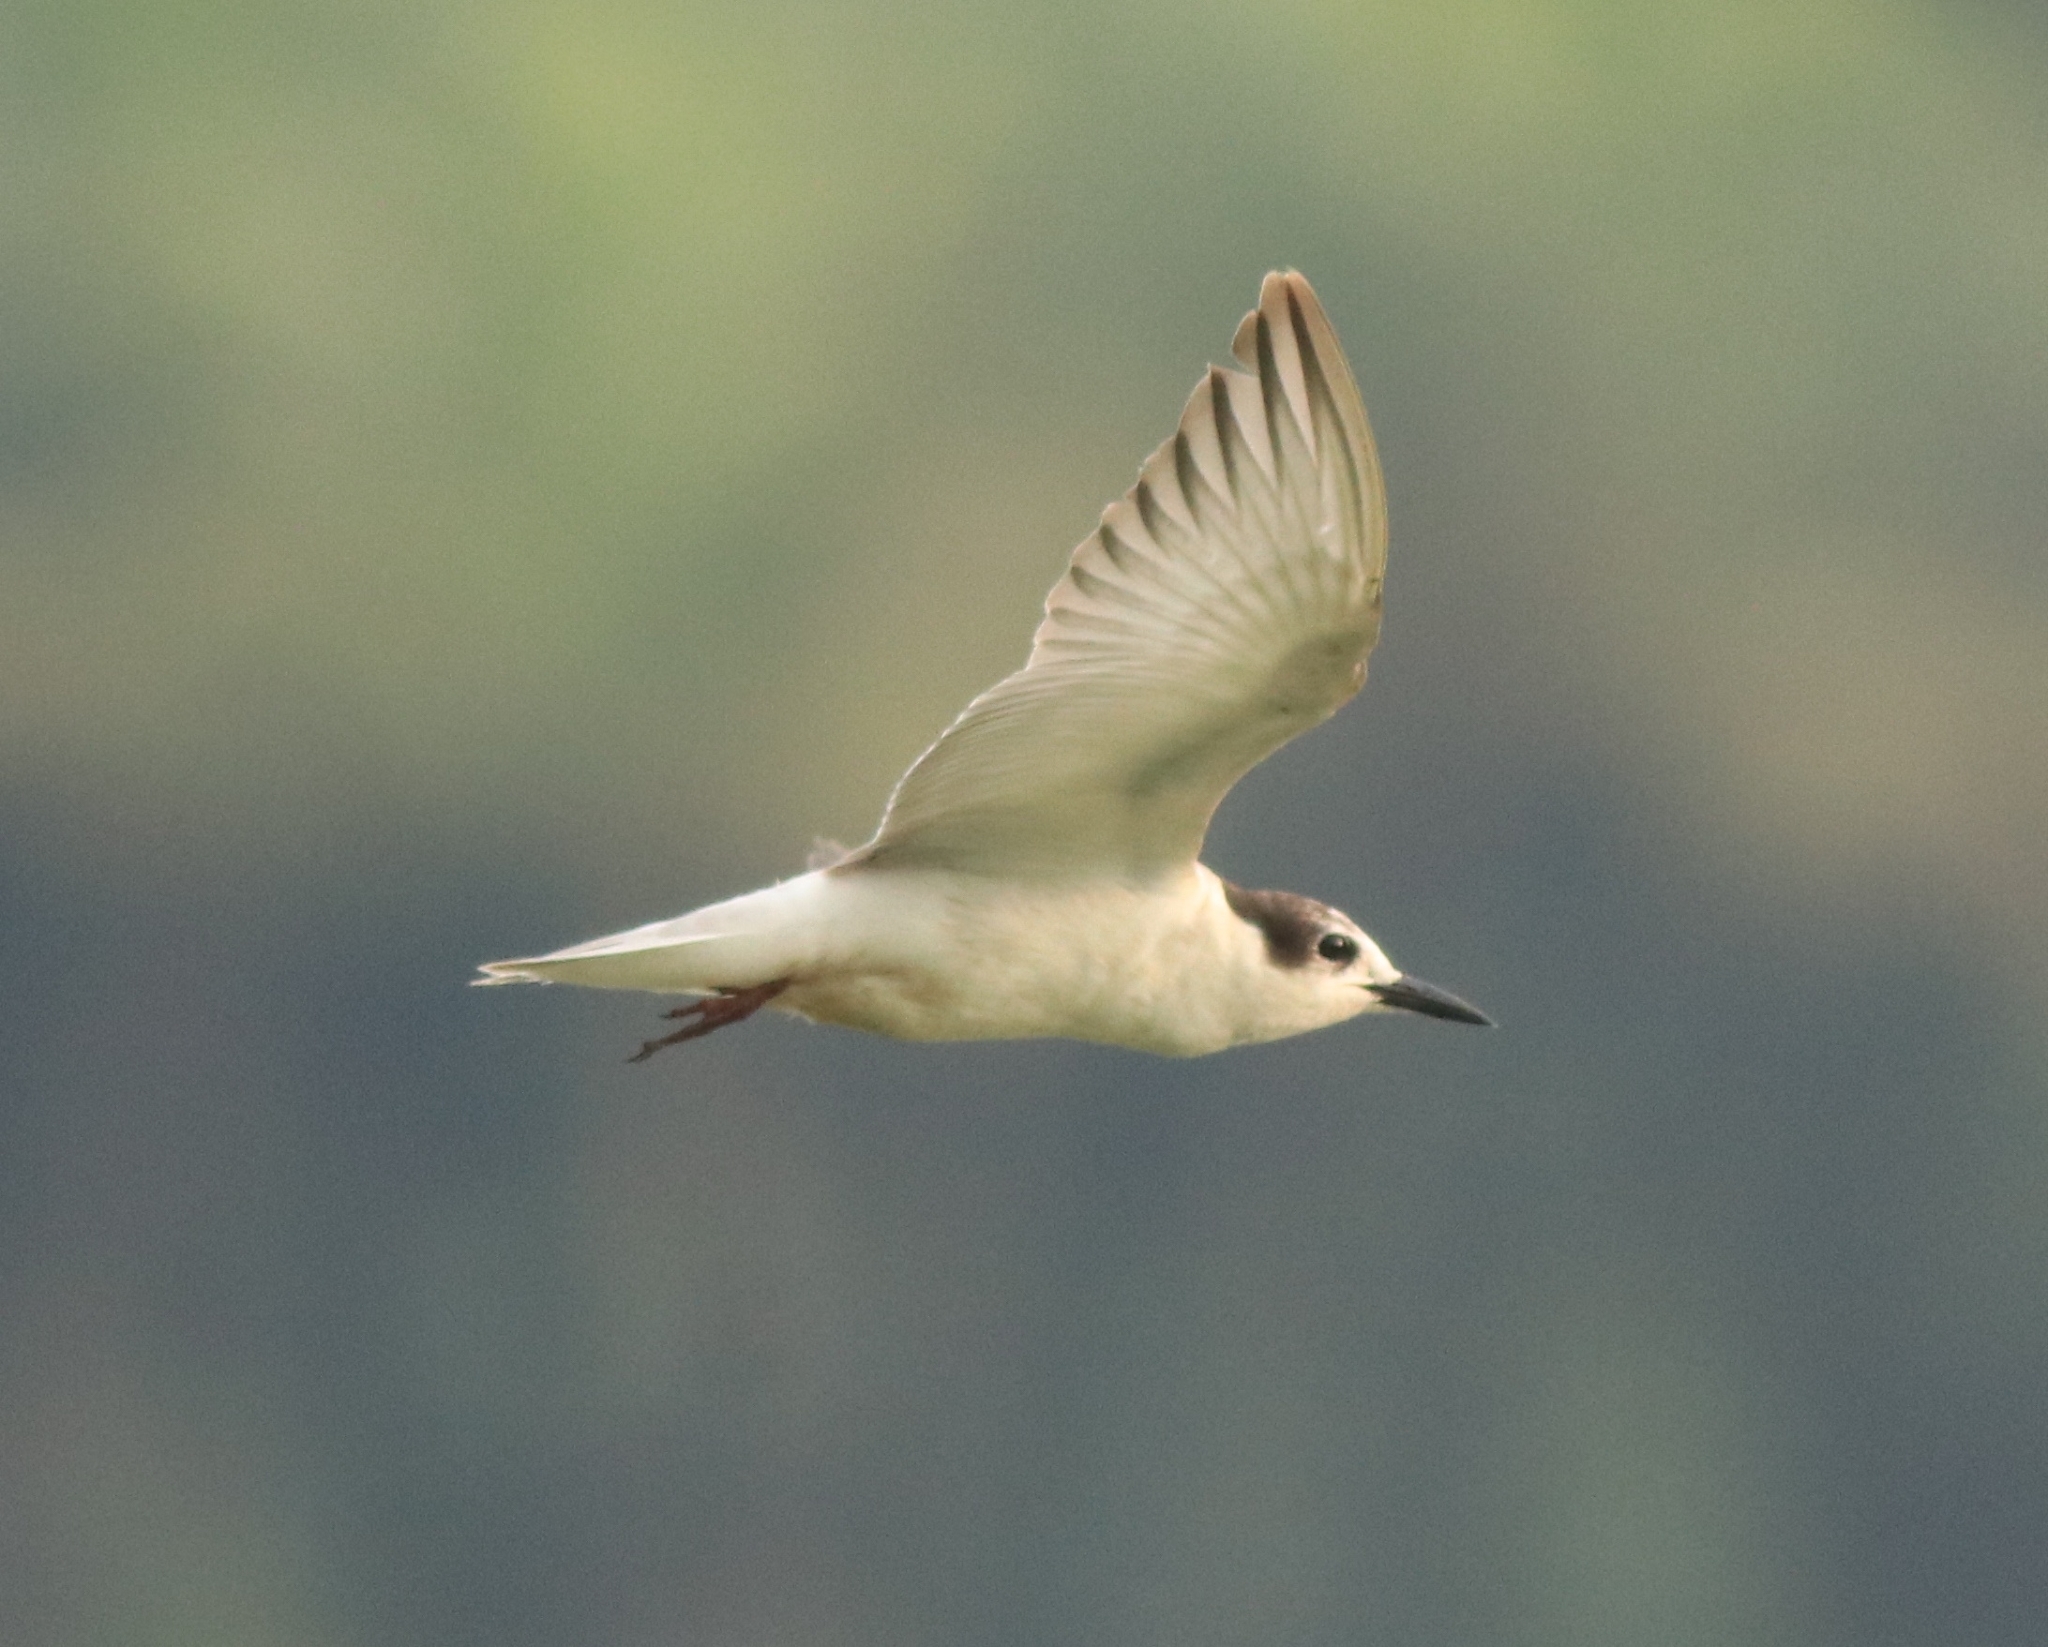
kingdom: Animalia
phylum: Chordata
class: Aves
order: Charadriiformes
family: Laridae
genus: Chlidonias
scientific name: Chlidonias hybrida
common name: Whiskered tern
